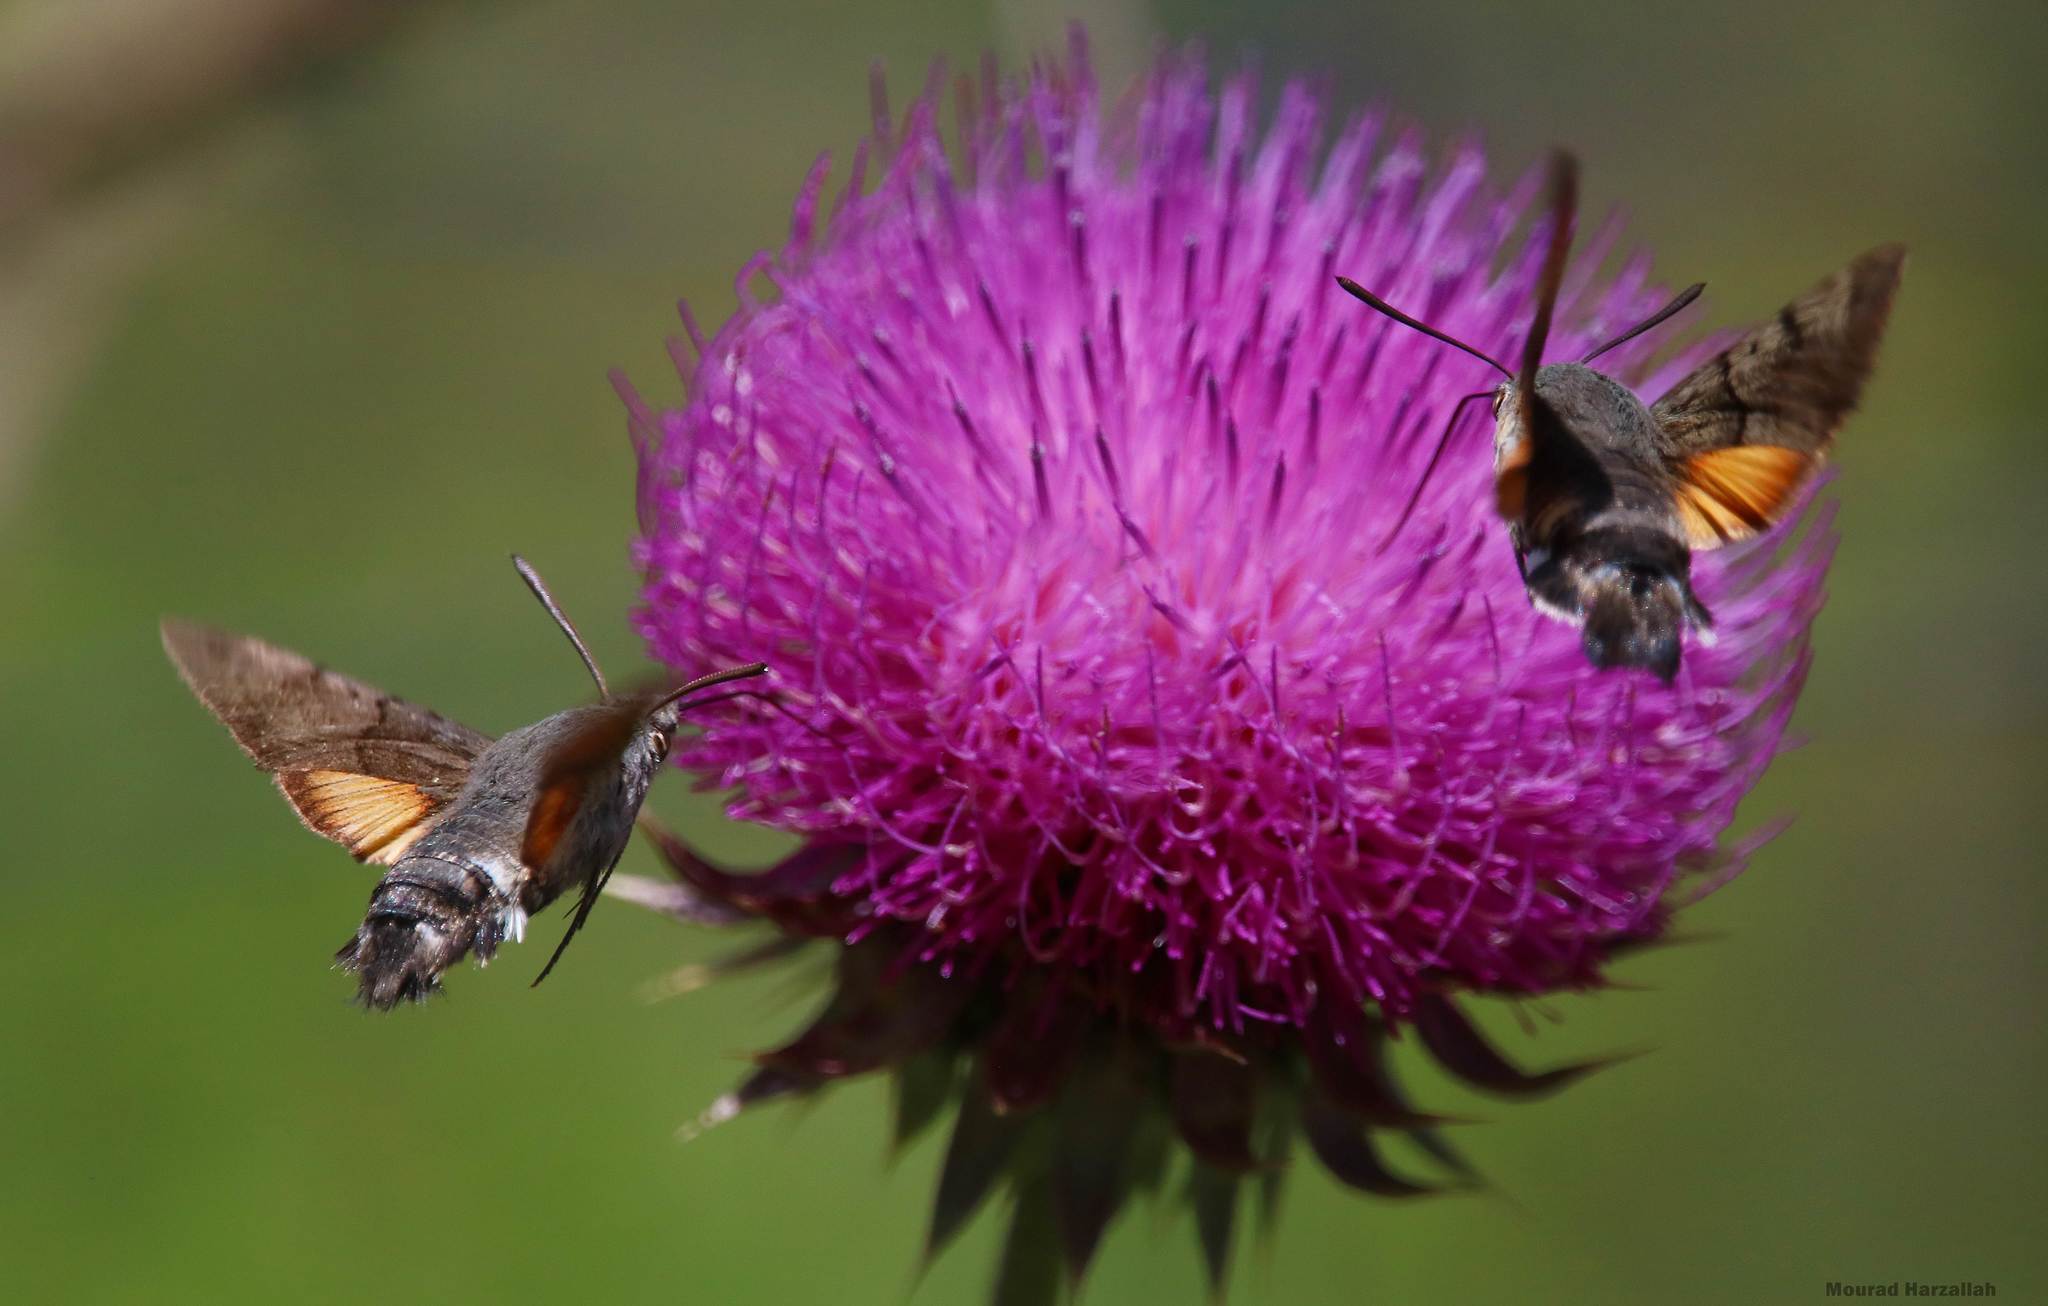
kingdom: Animalia
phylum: Arthropoda
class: Insecta
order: Lepidoptera
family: Sphingidae
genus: Macroglossum
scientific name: Macroglossum stellatarum
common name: Humming-bird hawk-moth
